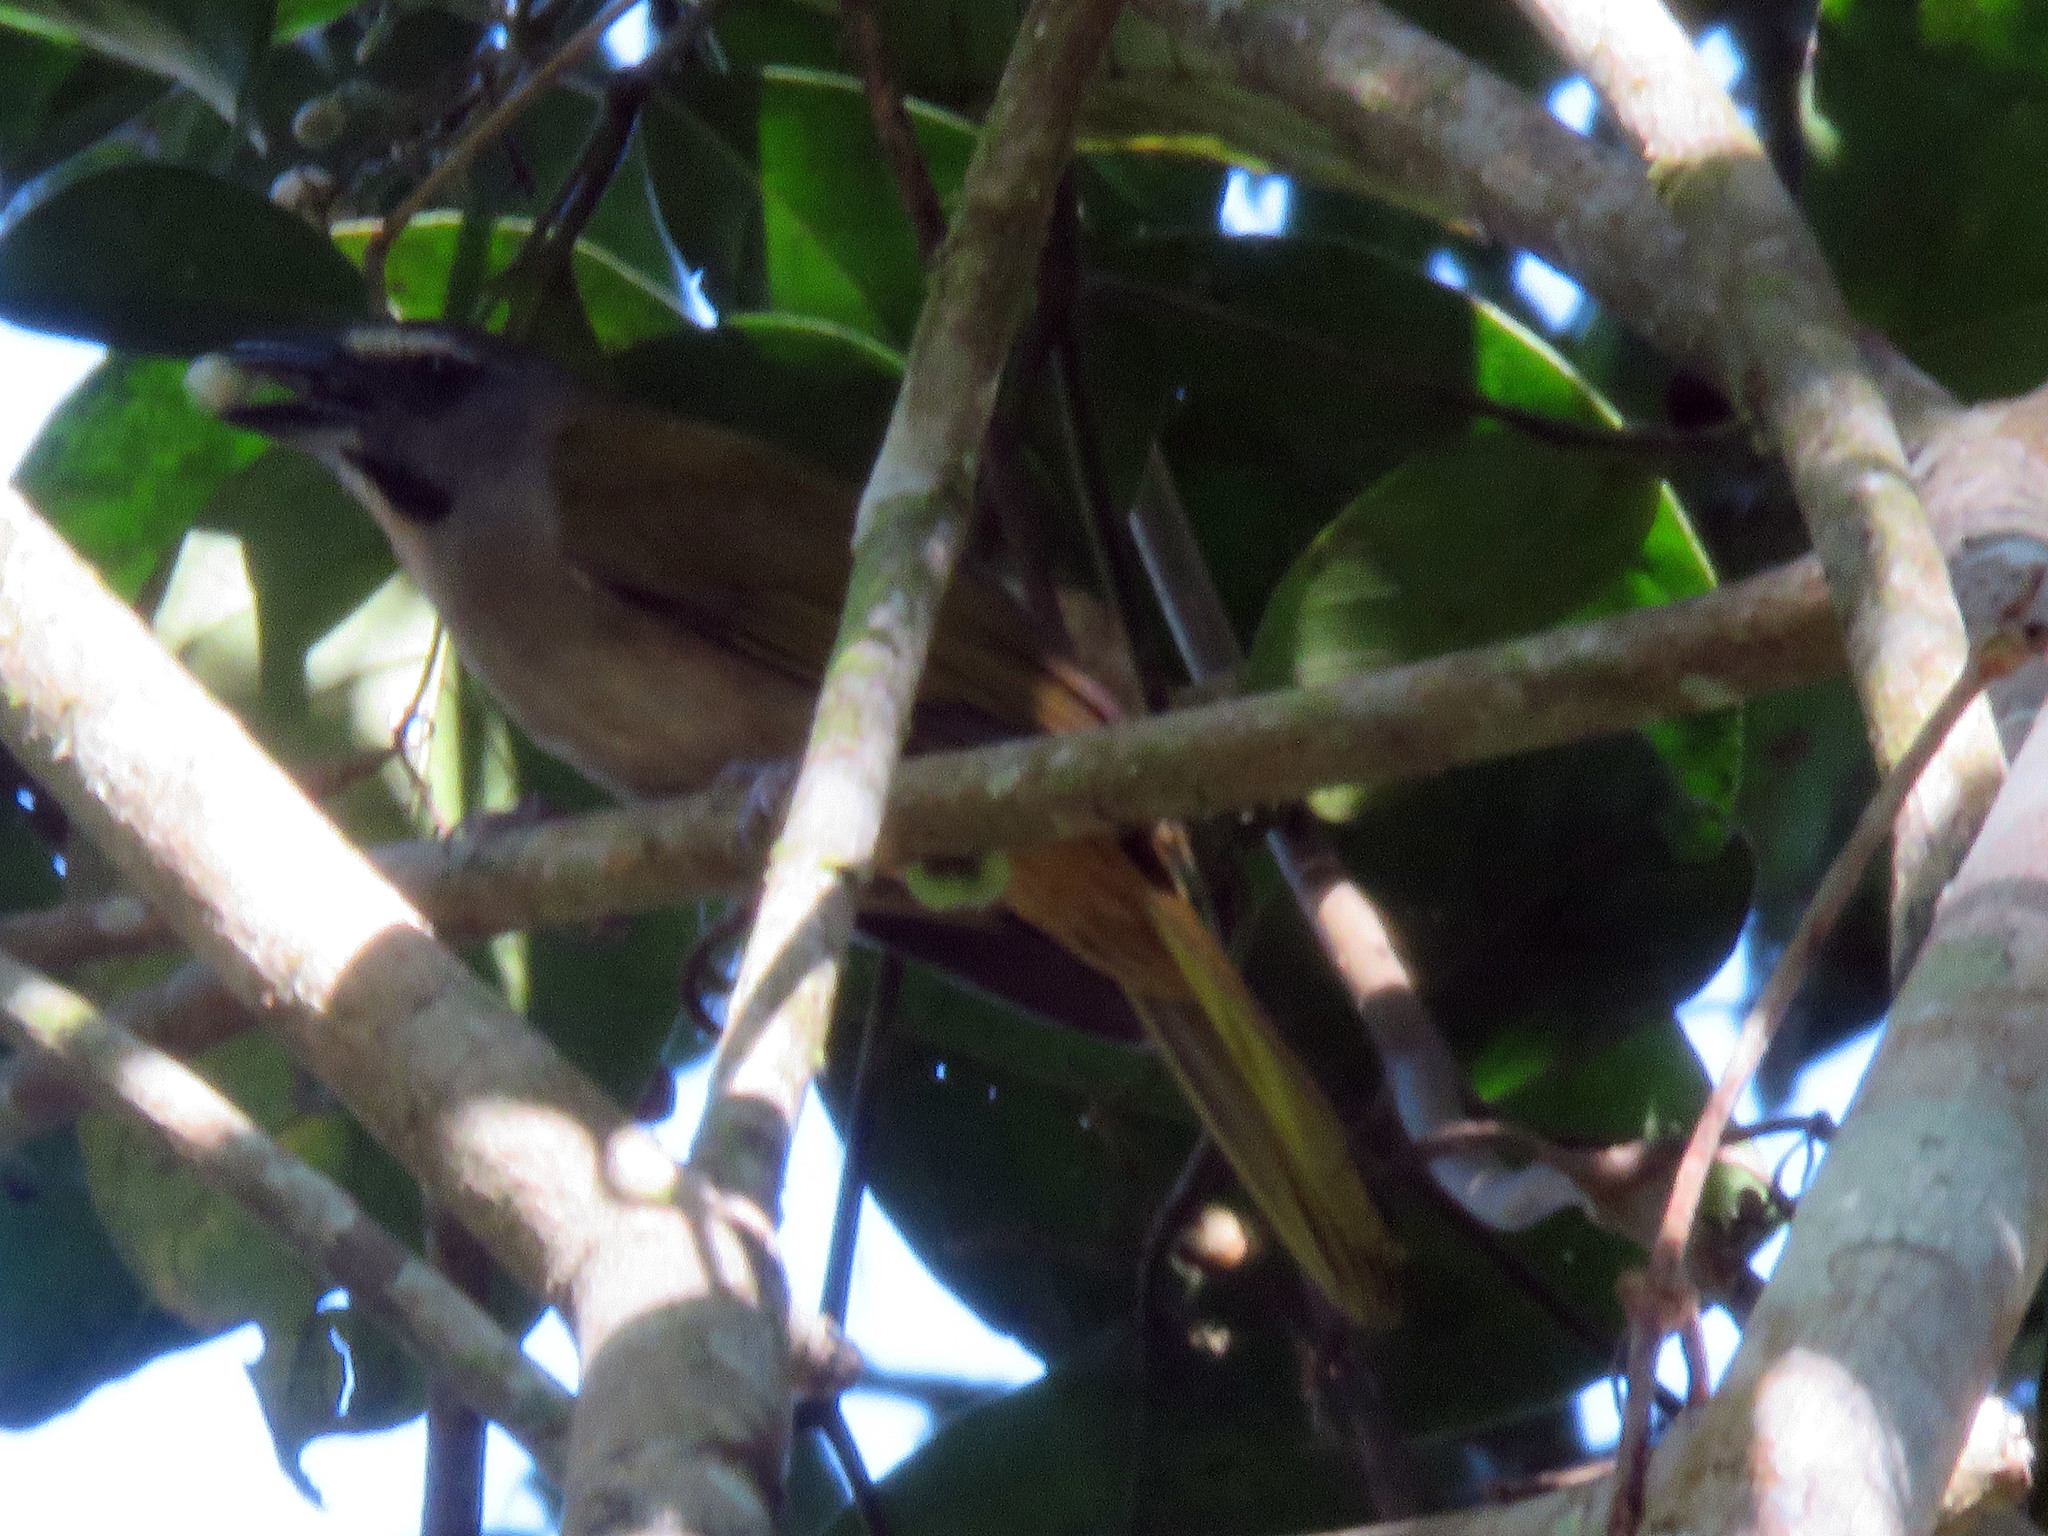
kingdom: Animalia
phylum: Chordata
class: Aves
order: Passeriformes
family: Thraupidae
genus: Saltator
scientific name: Saltator maximus
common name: Buff-throated saltator
